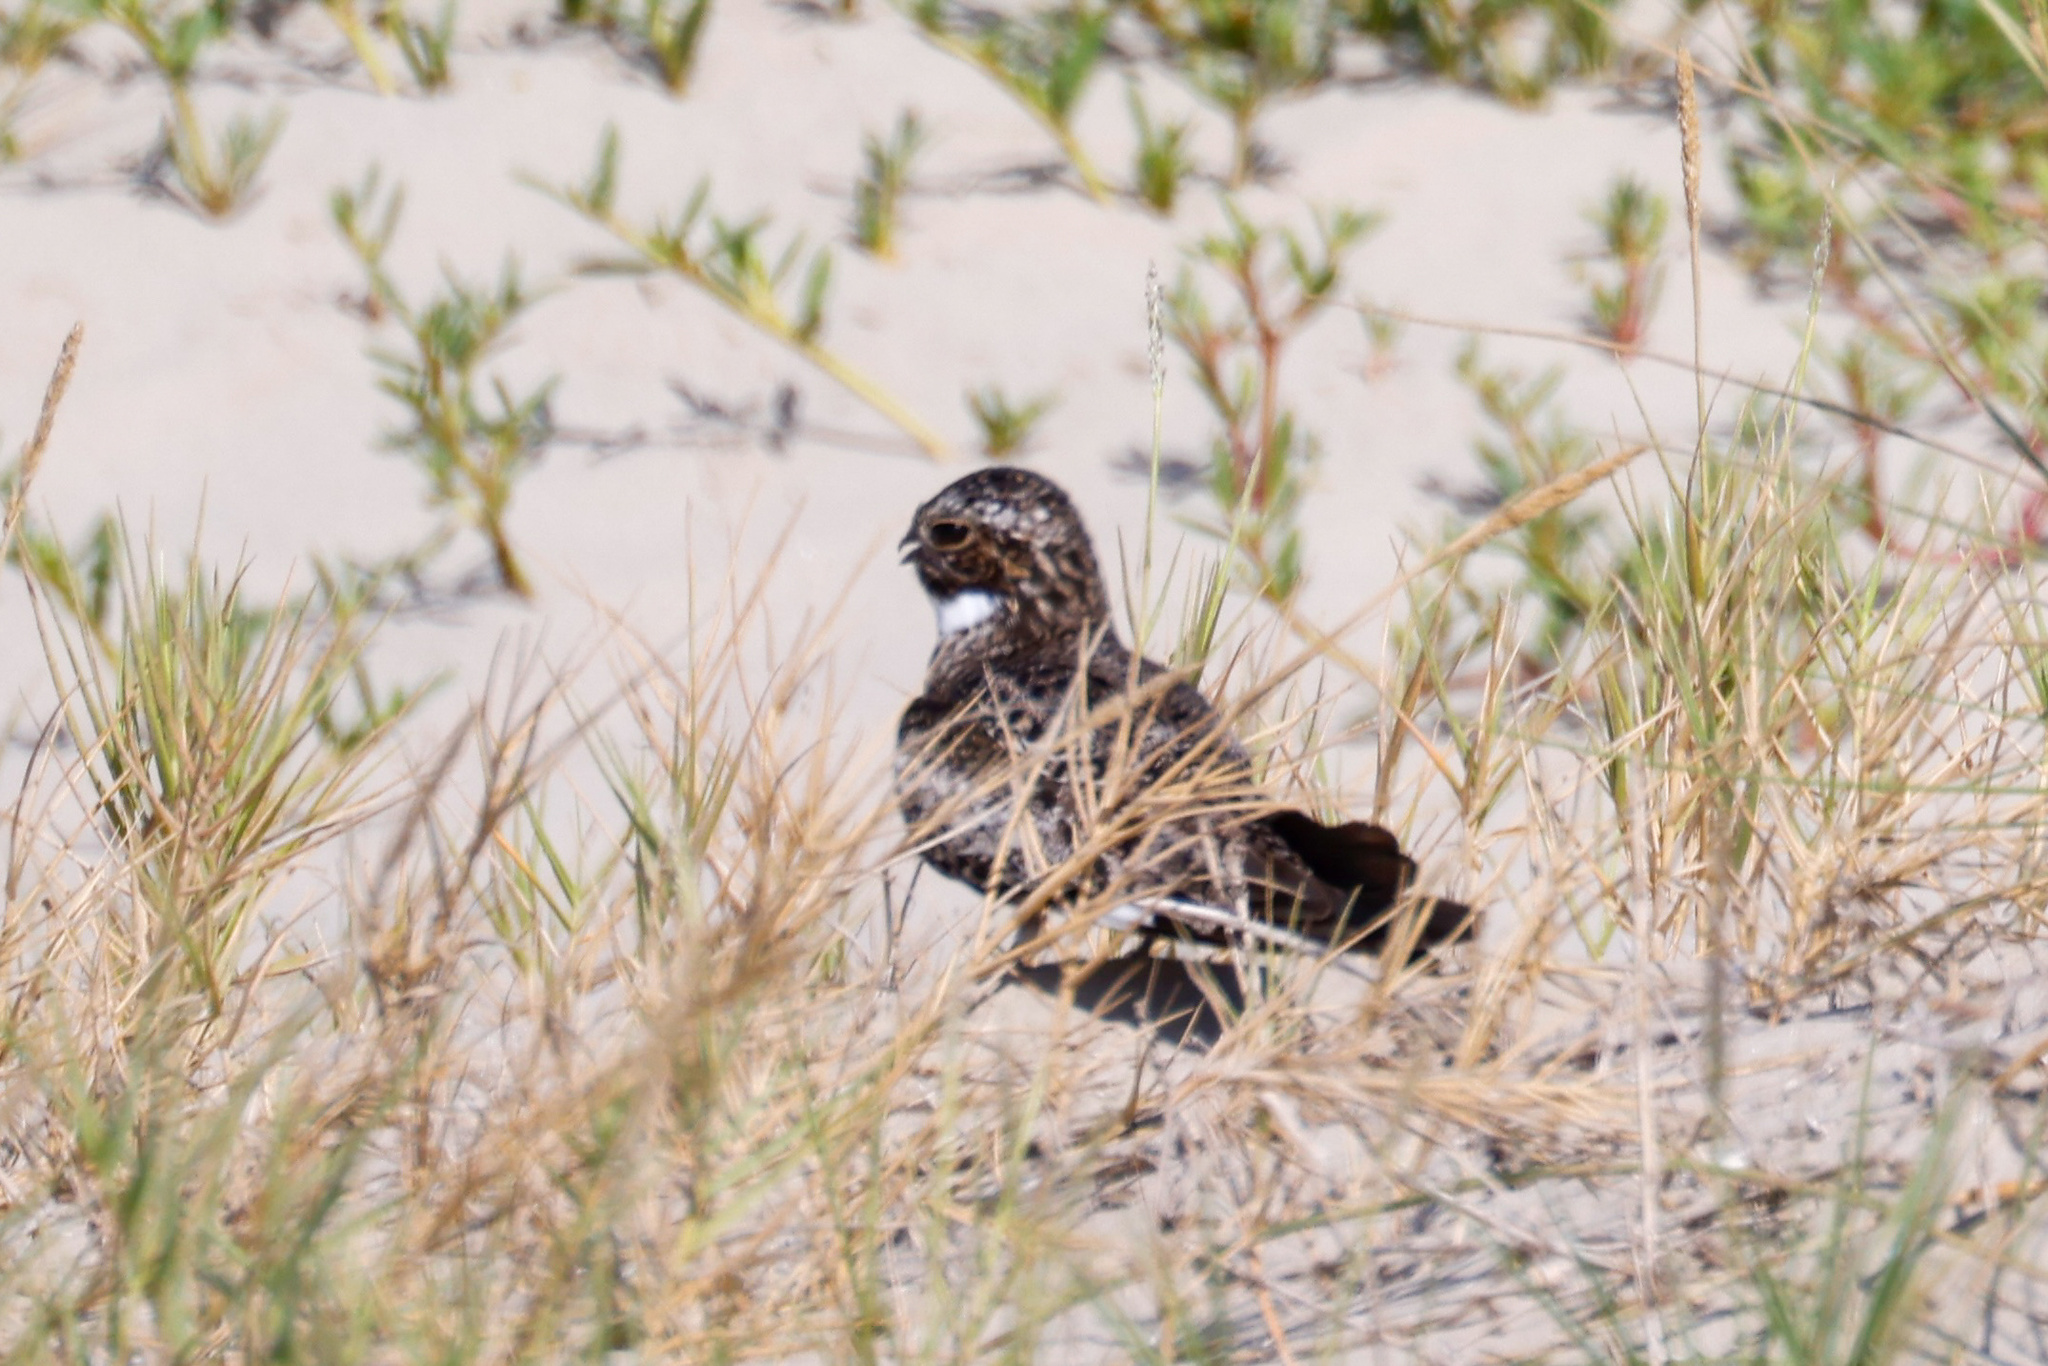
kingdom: Animalia
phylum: Chordata
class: Aves
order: Caprimulgiformes
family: Caprimulgidae
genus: Chordeiles
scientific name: Chordeiles minor
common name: Common nighthawk
